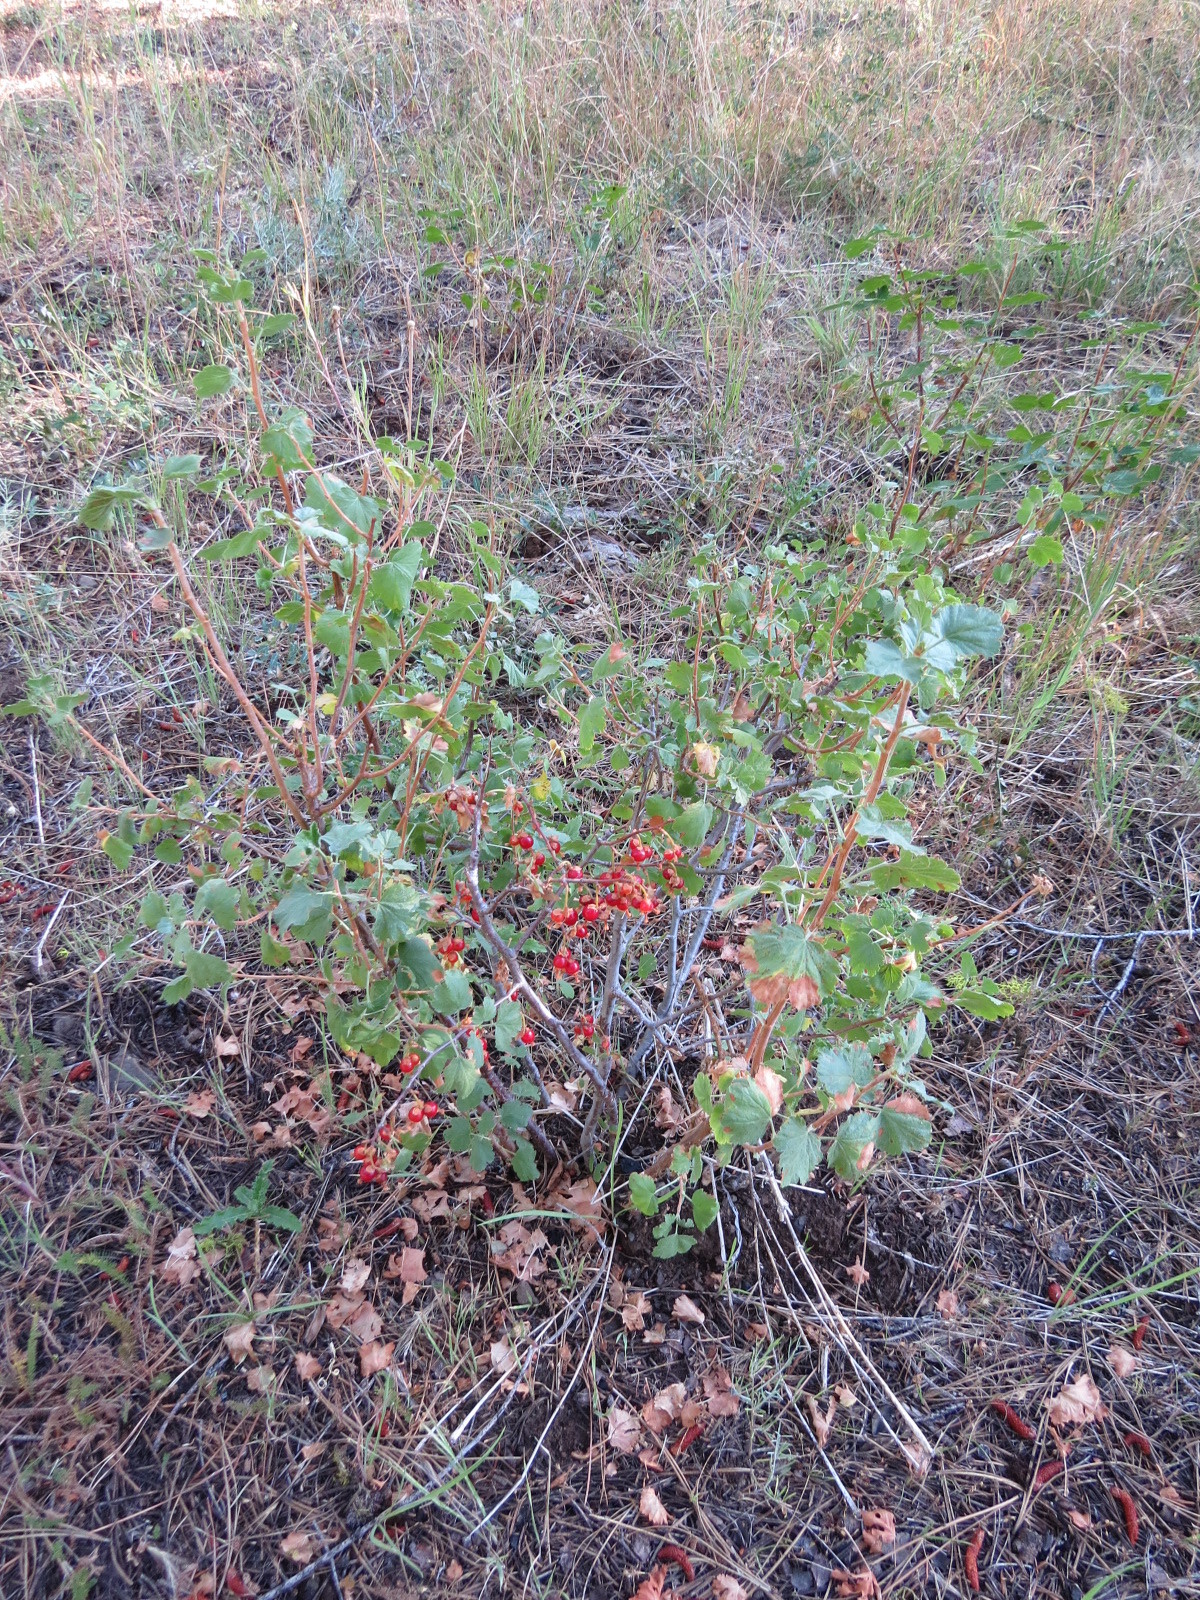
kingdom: Plantae
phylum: Tracheophyta
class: Magnoliopsida
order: Saxifragales
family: Grossulariaceae
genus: Ribes
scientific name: Ribes cereum
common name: Wax currant
